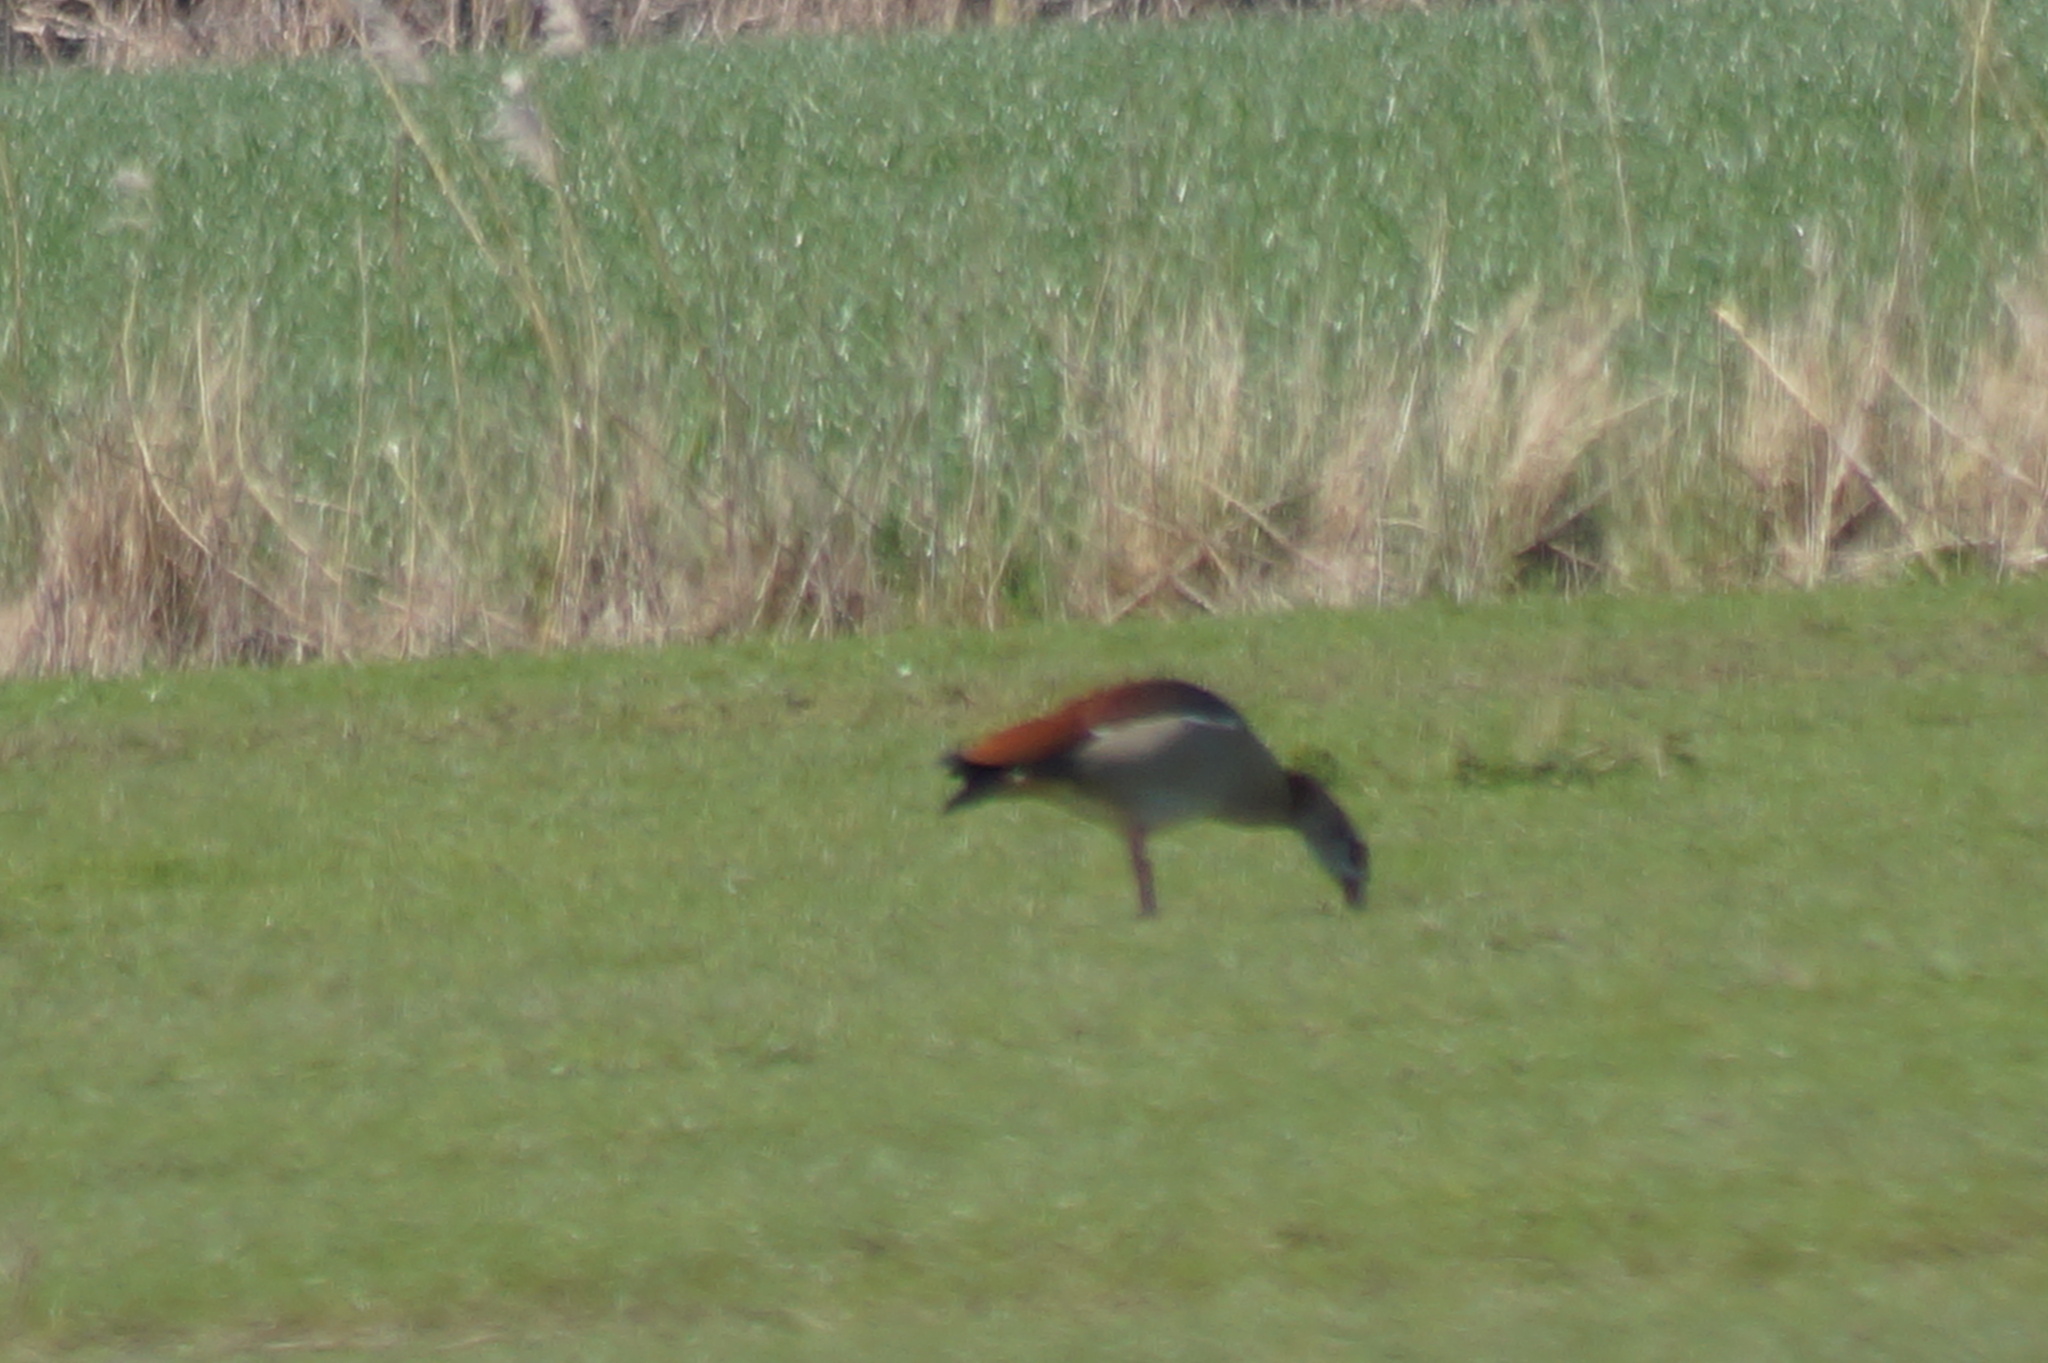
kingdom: Animalia
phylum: Chordata
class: Aves
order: Anseriformes
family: Anatidae
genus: Alopochen
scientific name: Alopochen aegyptiaca
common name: Egyptian goose
